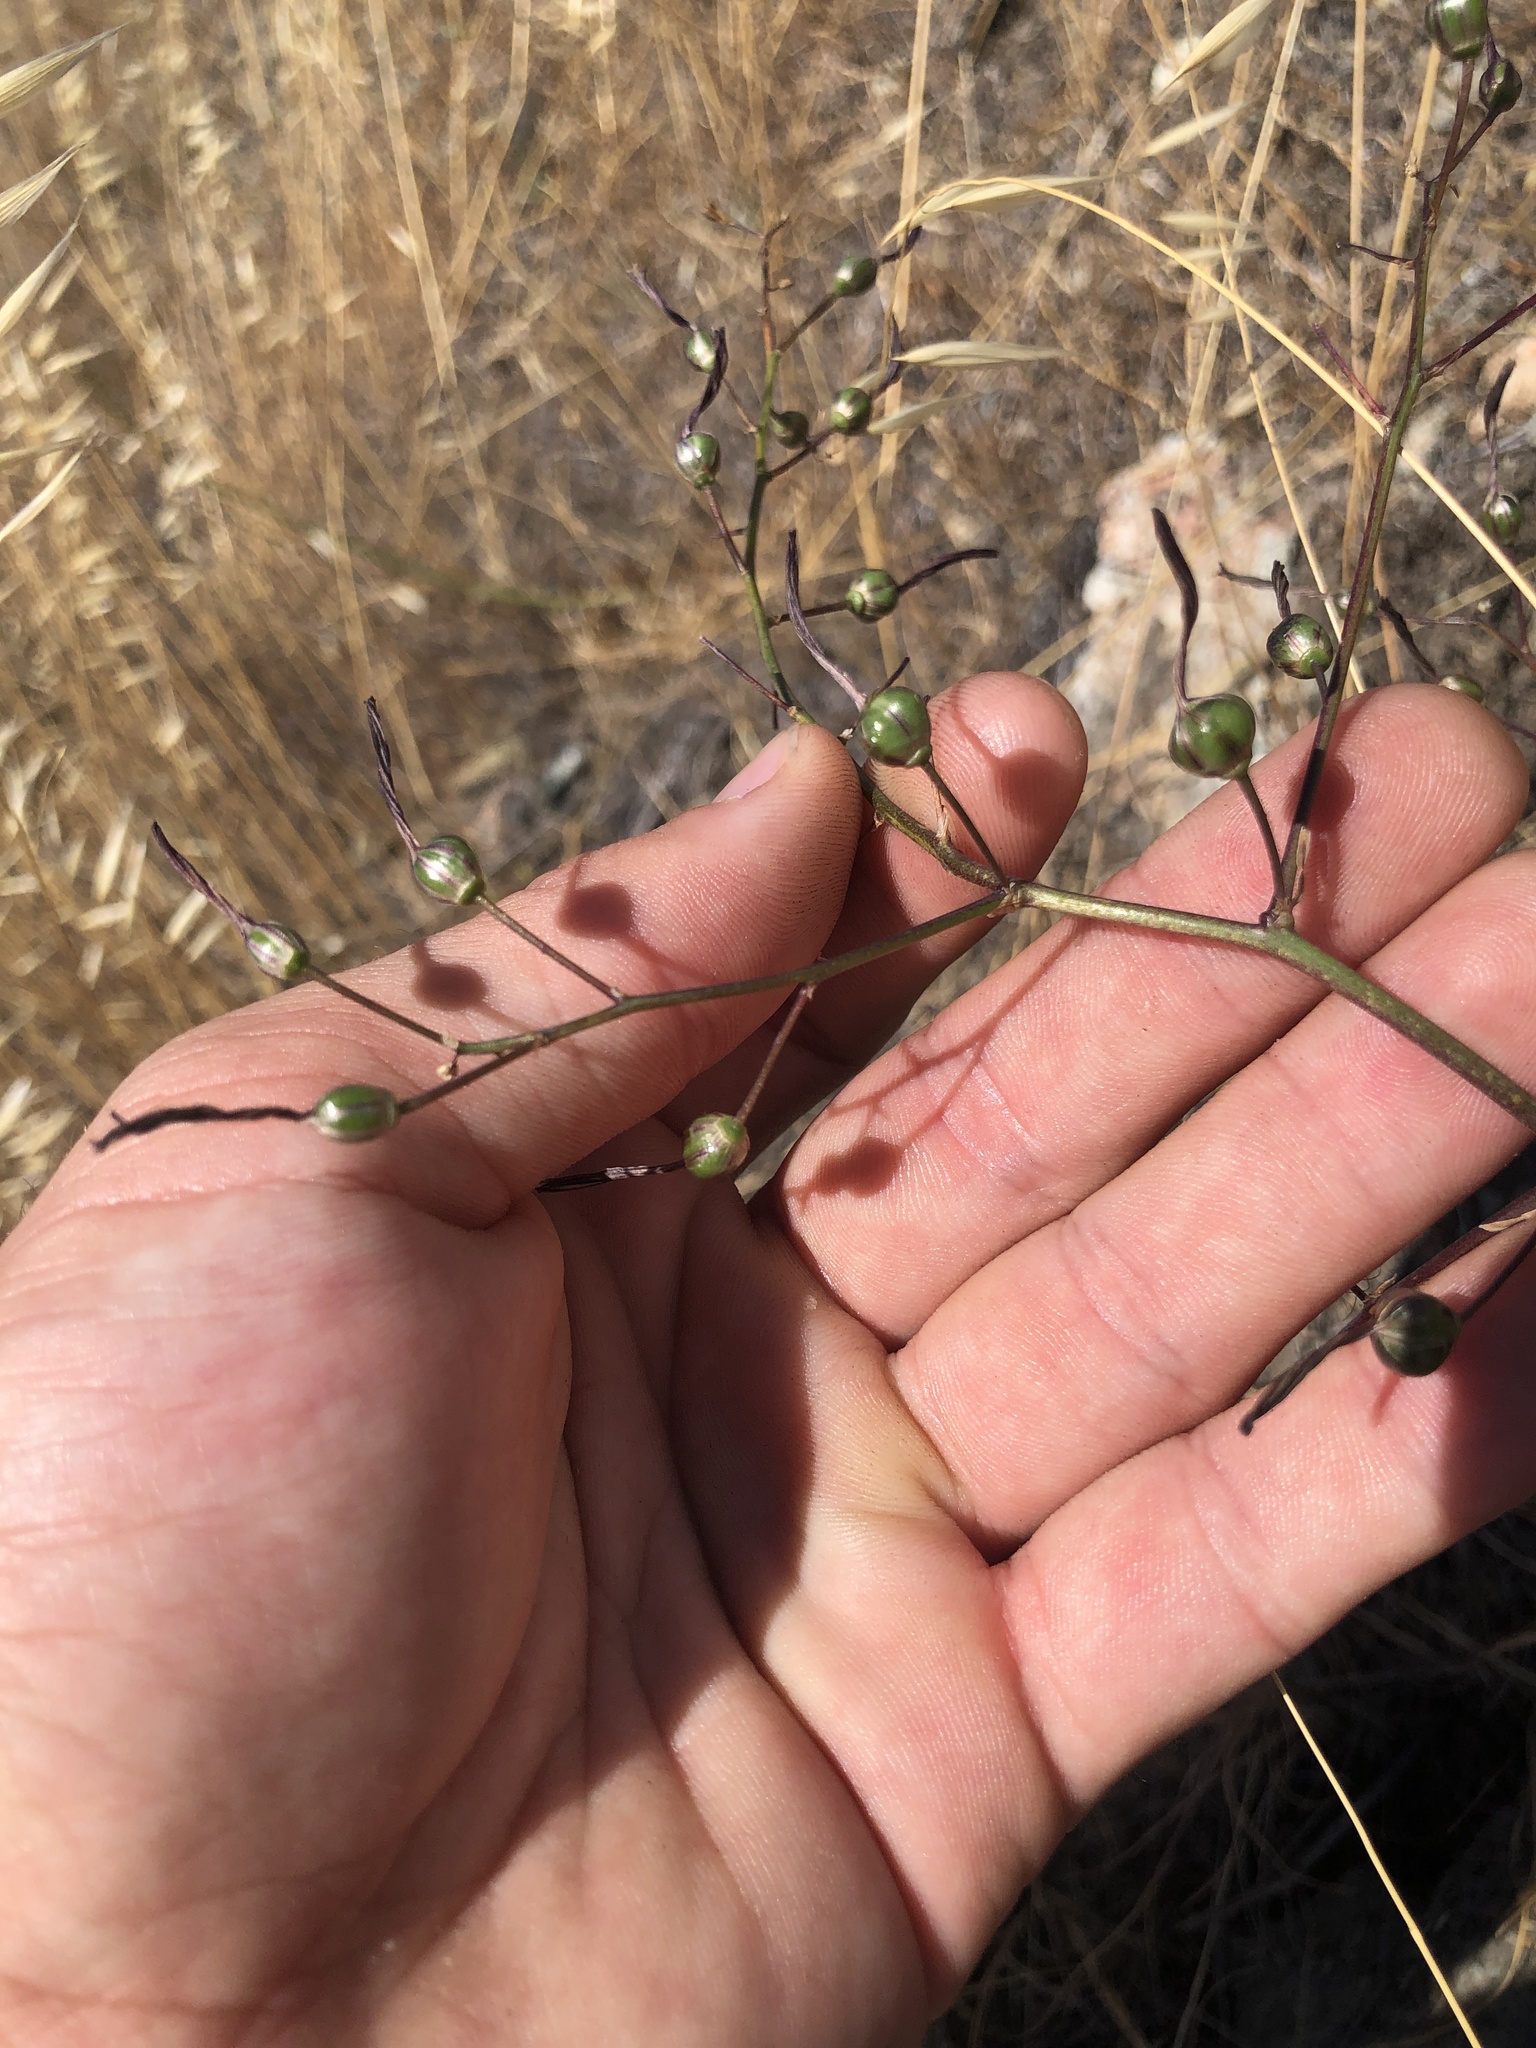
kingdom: Plantae
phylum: Tracheophyta
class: Liliopsida
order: Asparagales
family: Asparagaceae
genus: Chlorogalum
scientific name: Chlorogalum pomeridianum
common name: Amole
